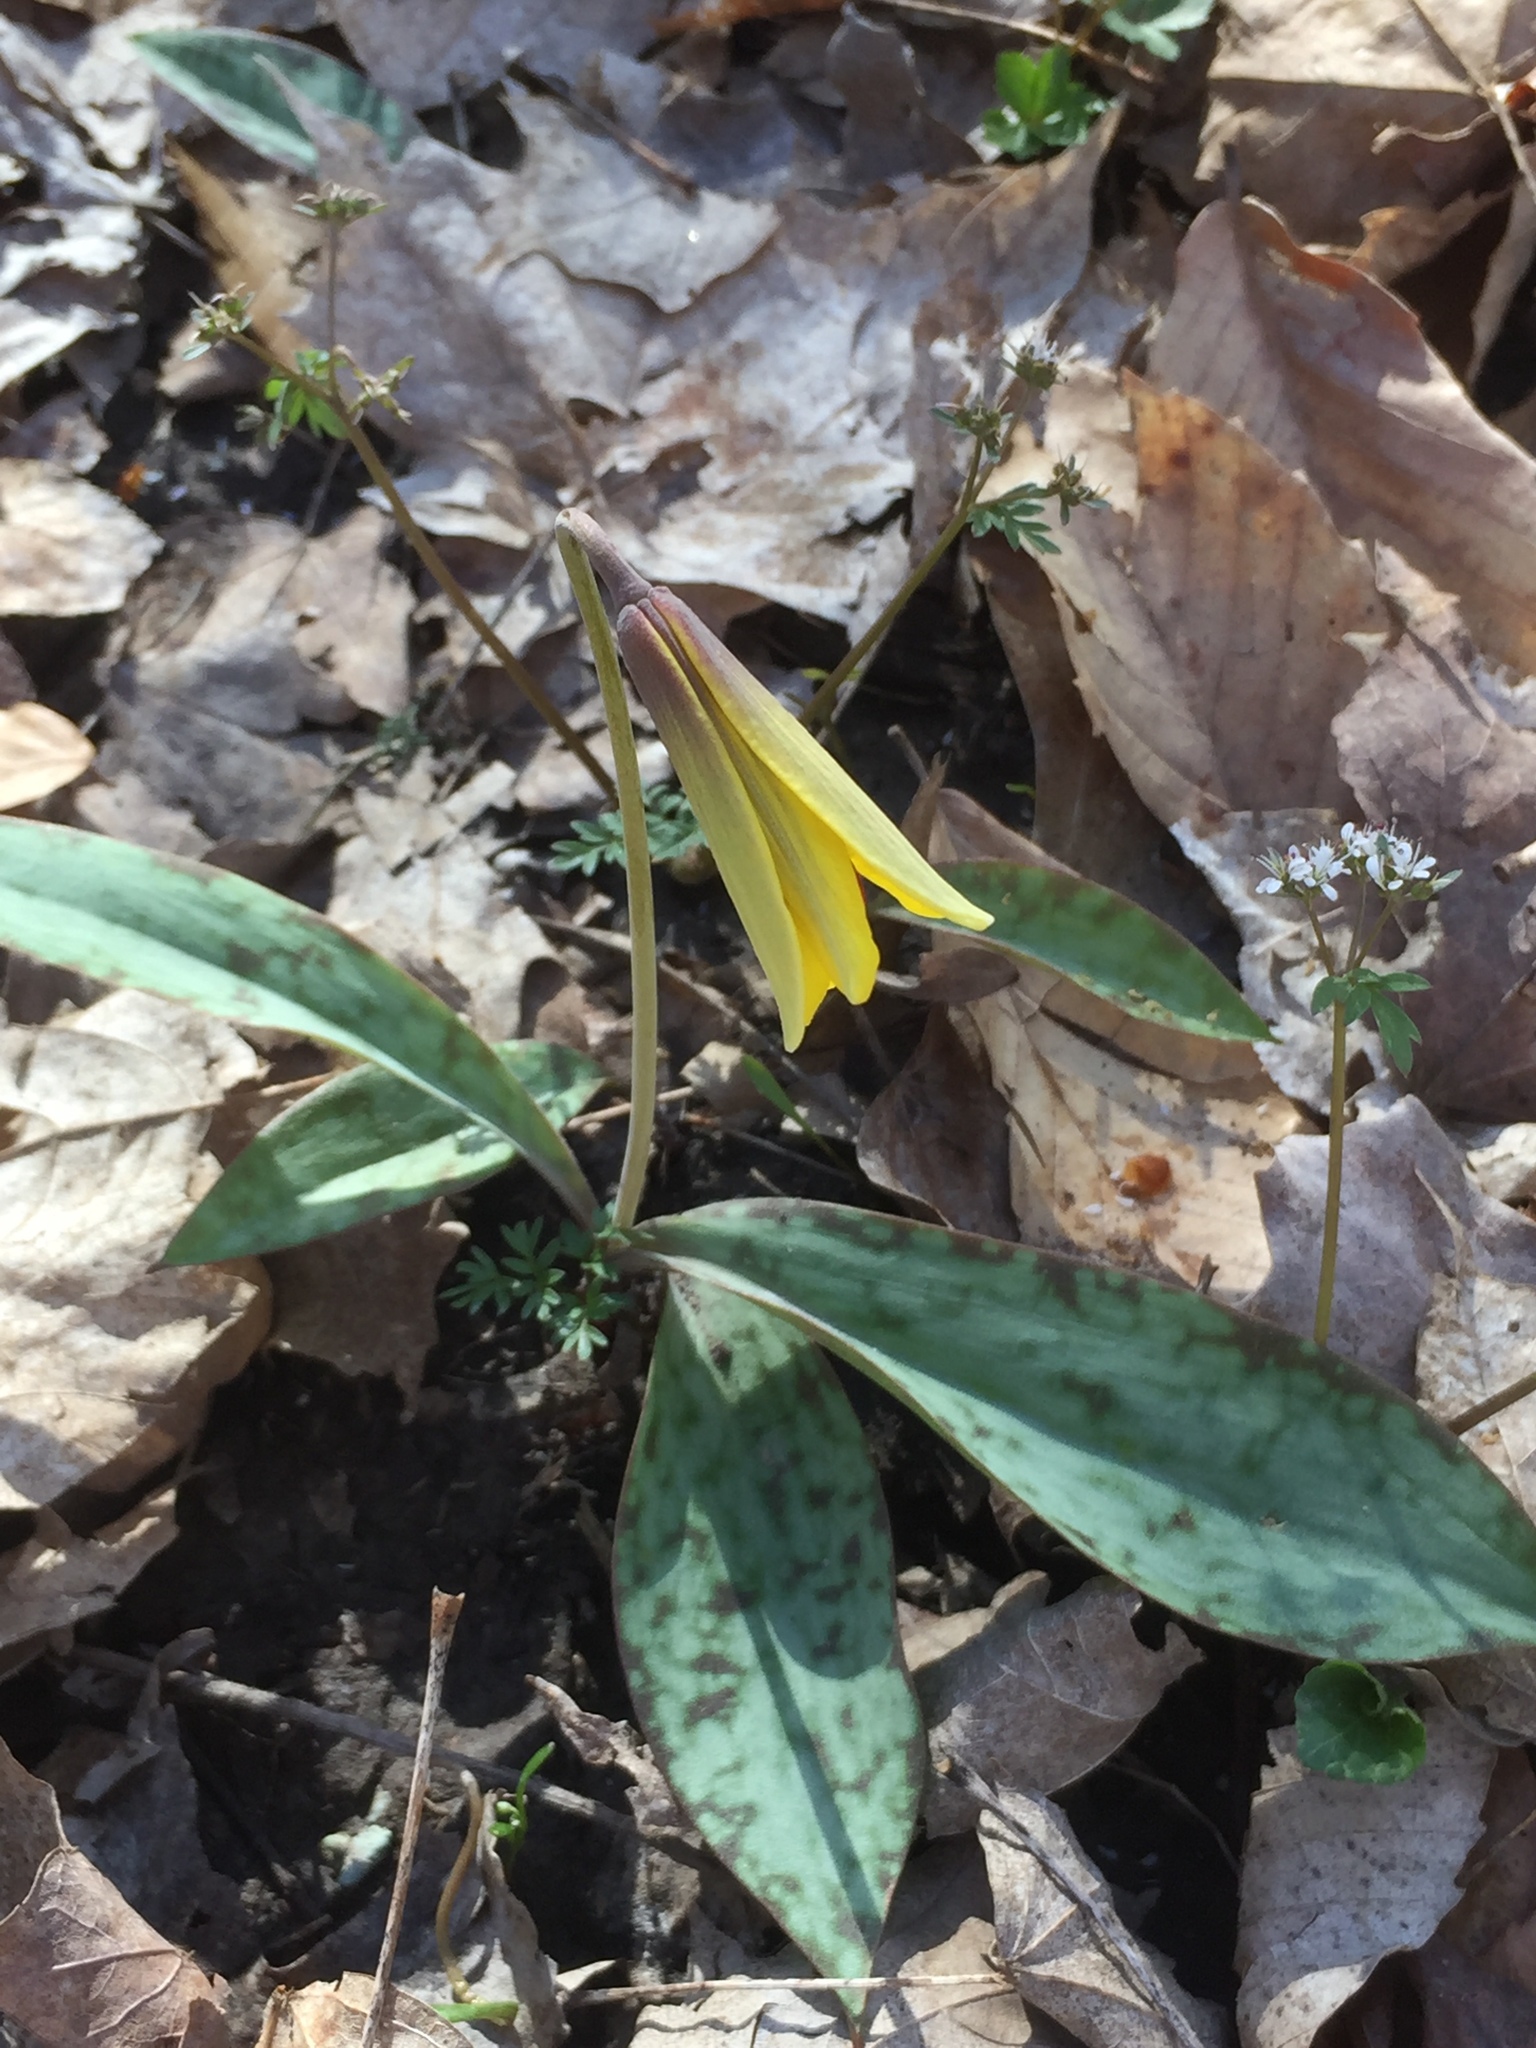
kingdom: Plantae
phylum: Tracheophyta
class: Liliopsida
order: Liliales
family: Liliaceae
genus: Erythronium
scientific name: Erythronium americanum
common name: Yellow adder's-tongue
